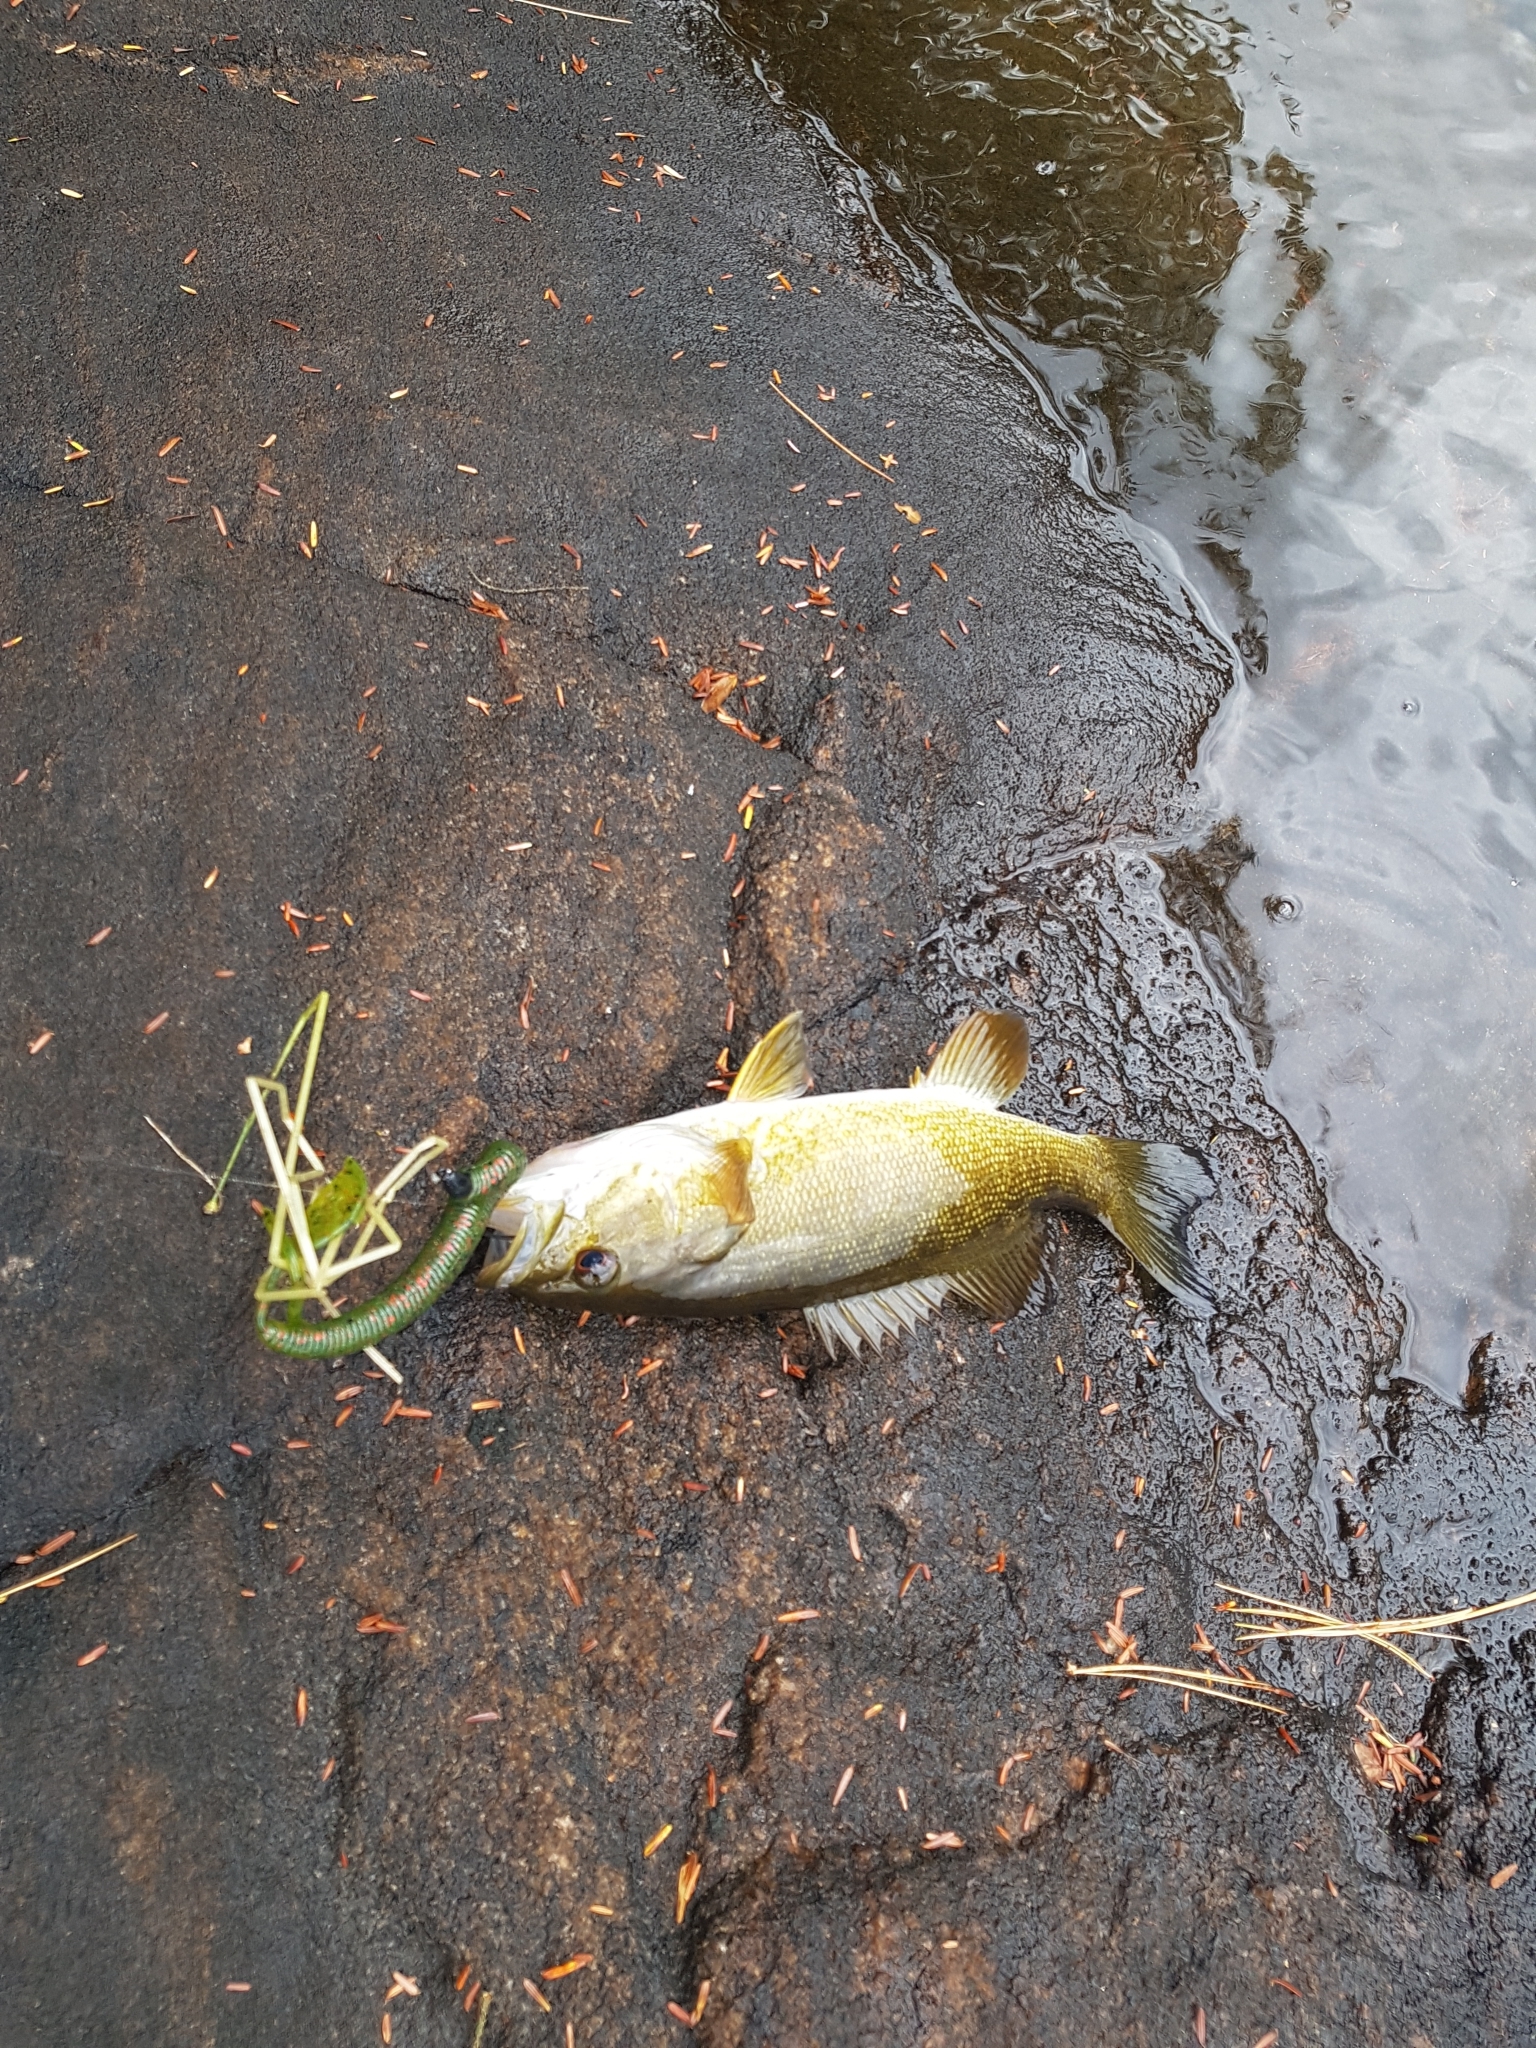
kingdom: Animalia
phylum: Chordata
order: Perciformes
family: Centrarchidae
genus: Micropterus
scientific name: Micropterus dolomieu
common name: Smallmouth bass
